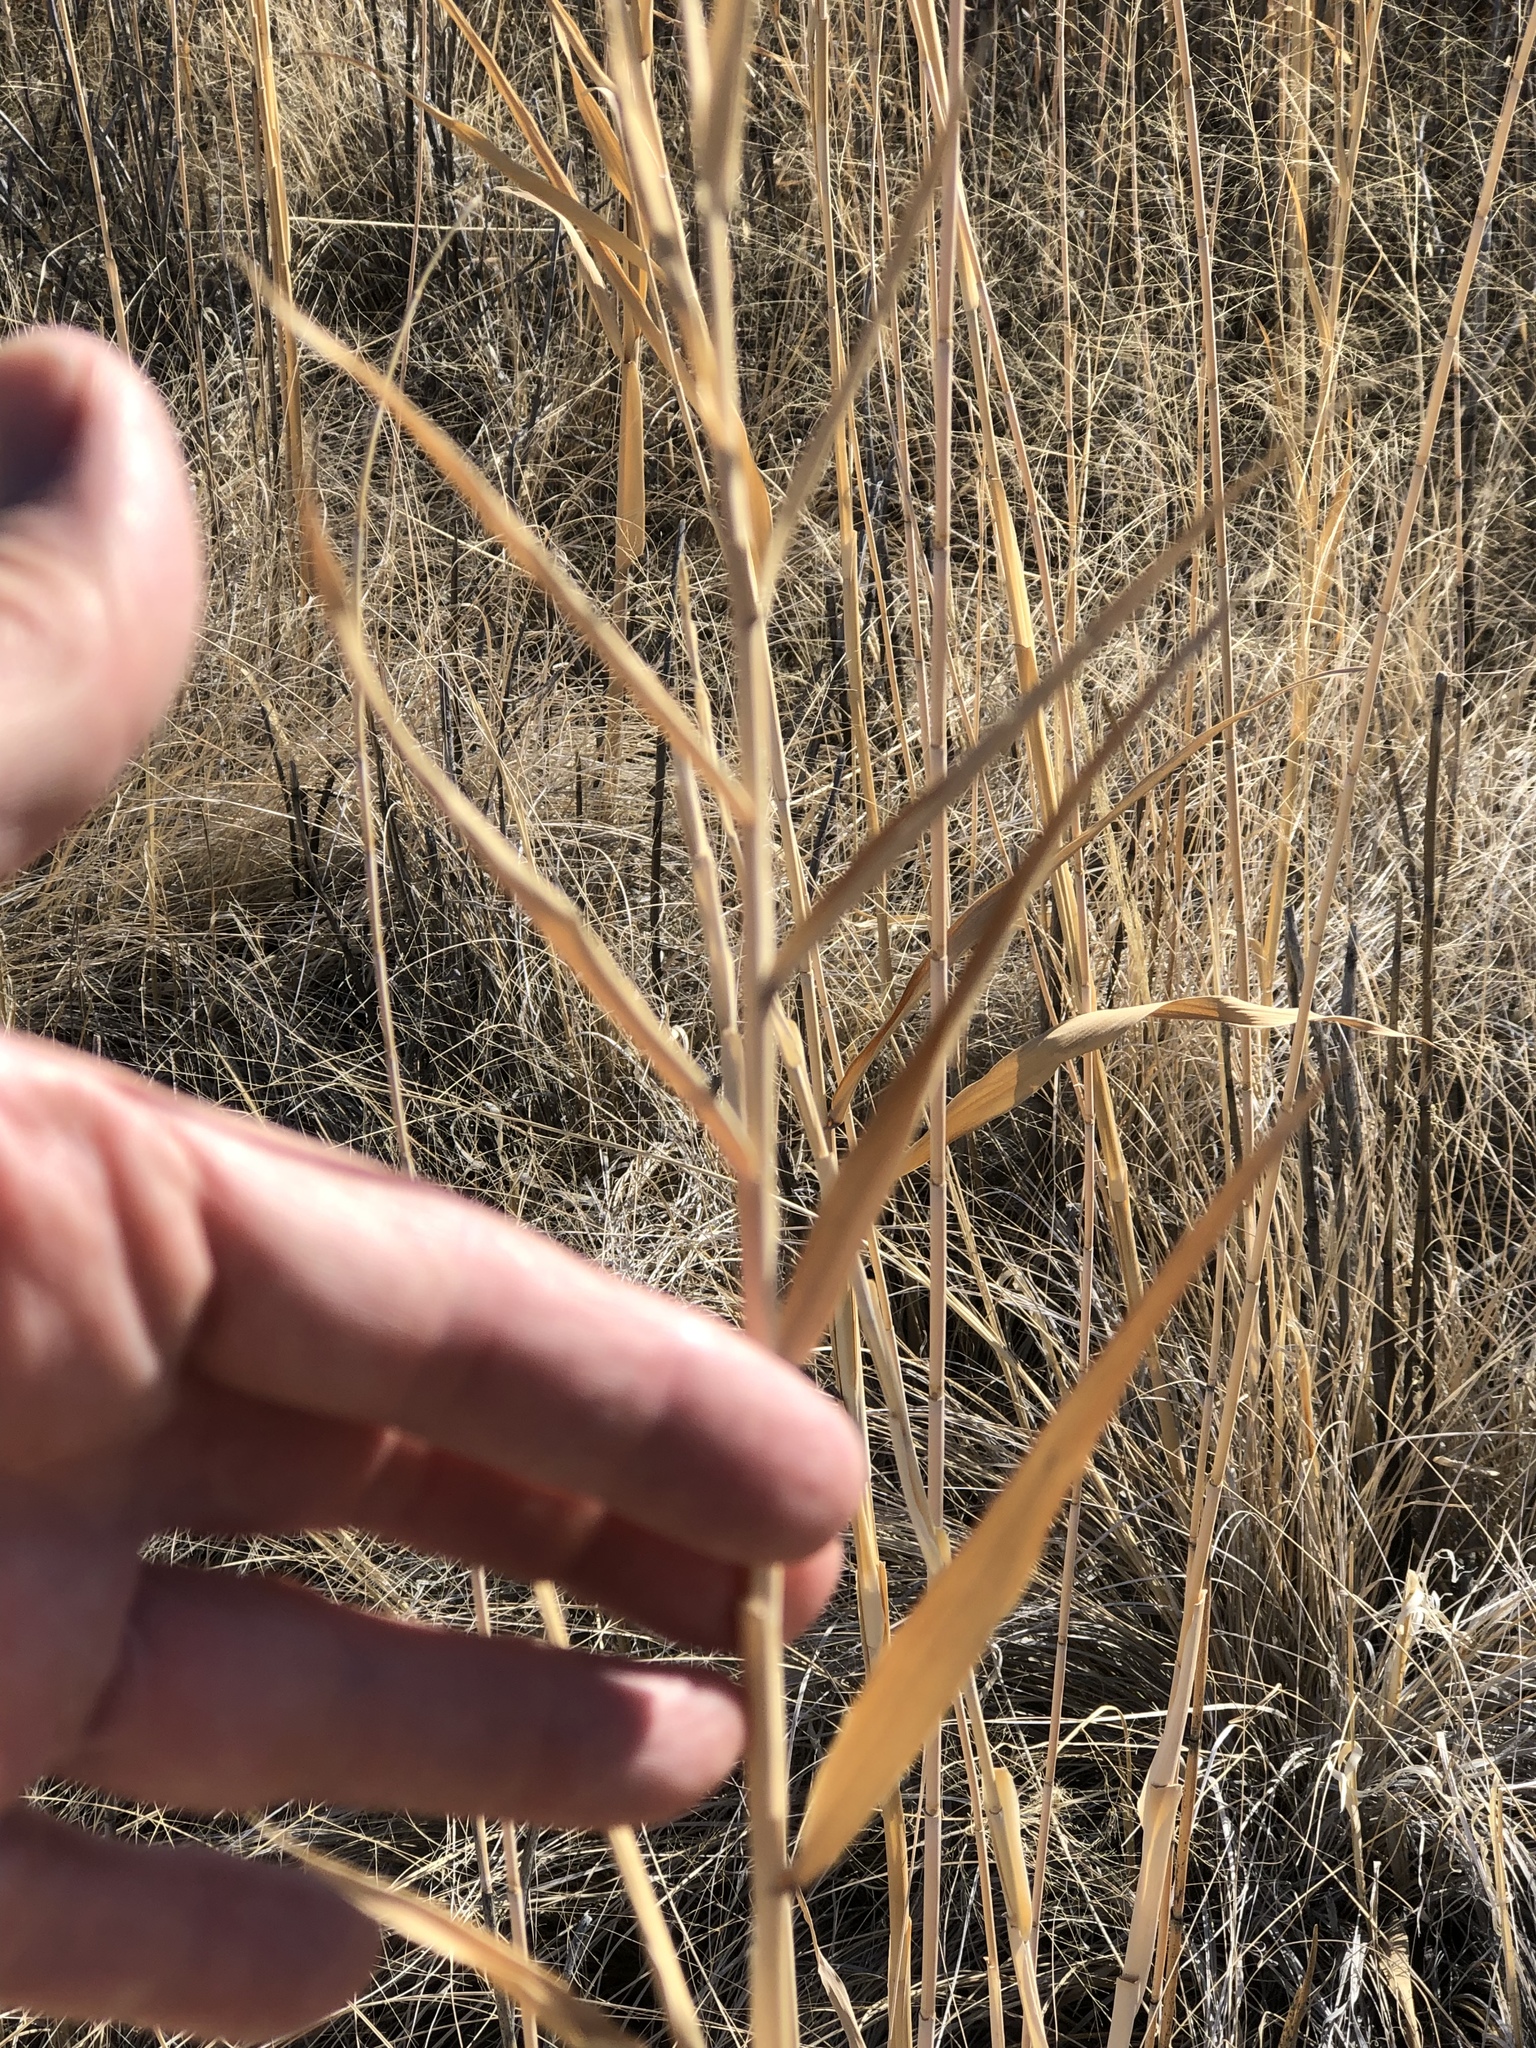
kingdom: Plantae
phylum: Tracheophyta
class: Liliopsida
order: Poales
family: Poaceae
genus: Phragmites
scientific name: Phragmites australis
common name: Common reed
